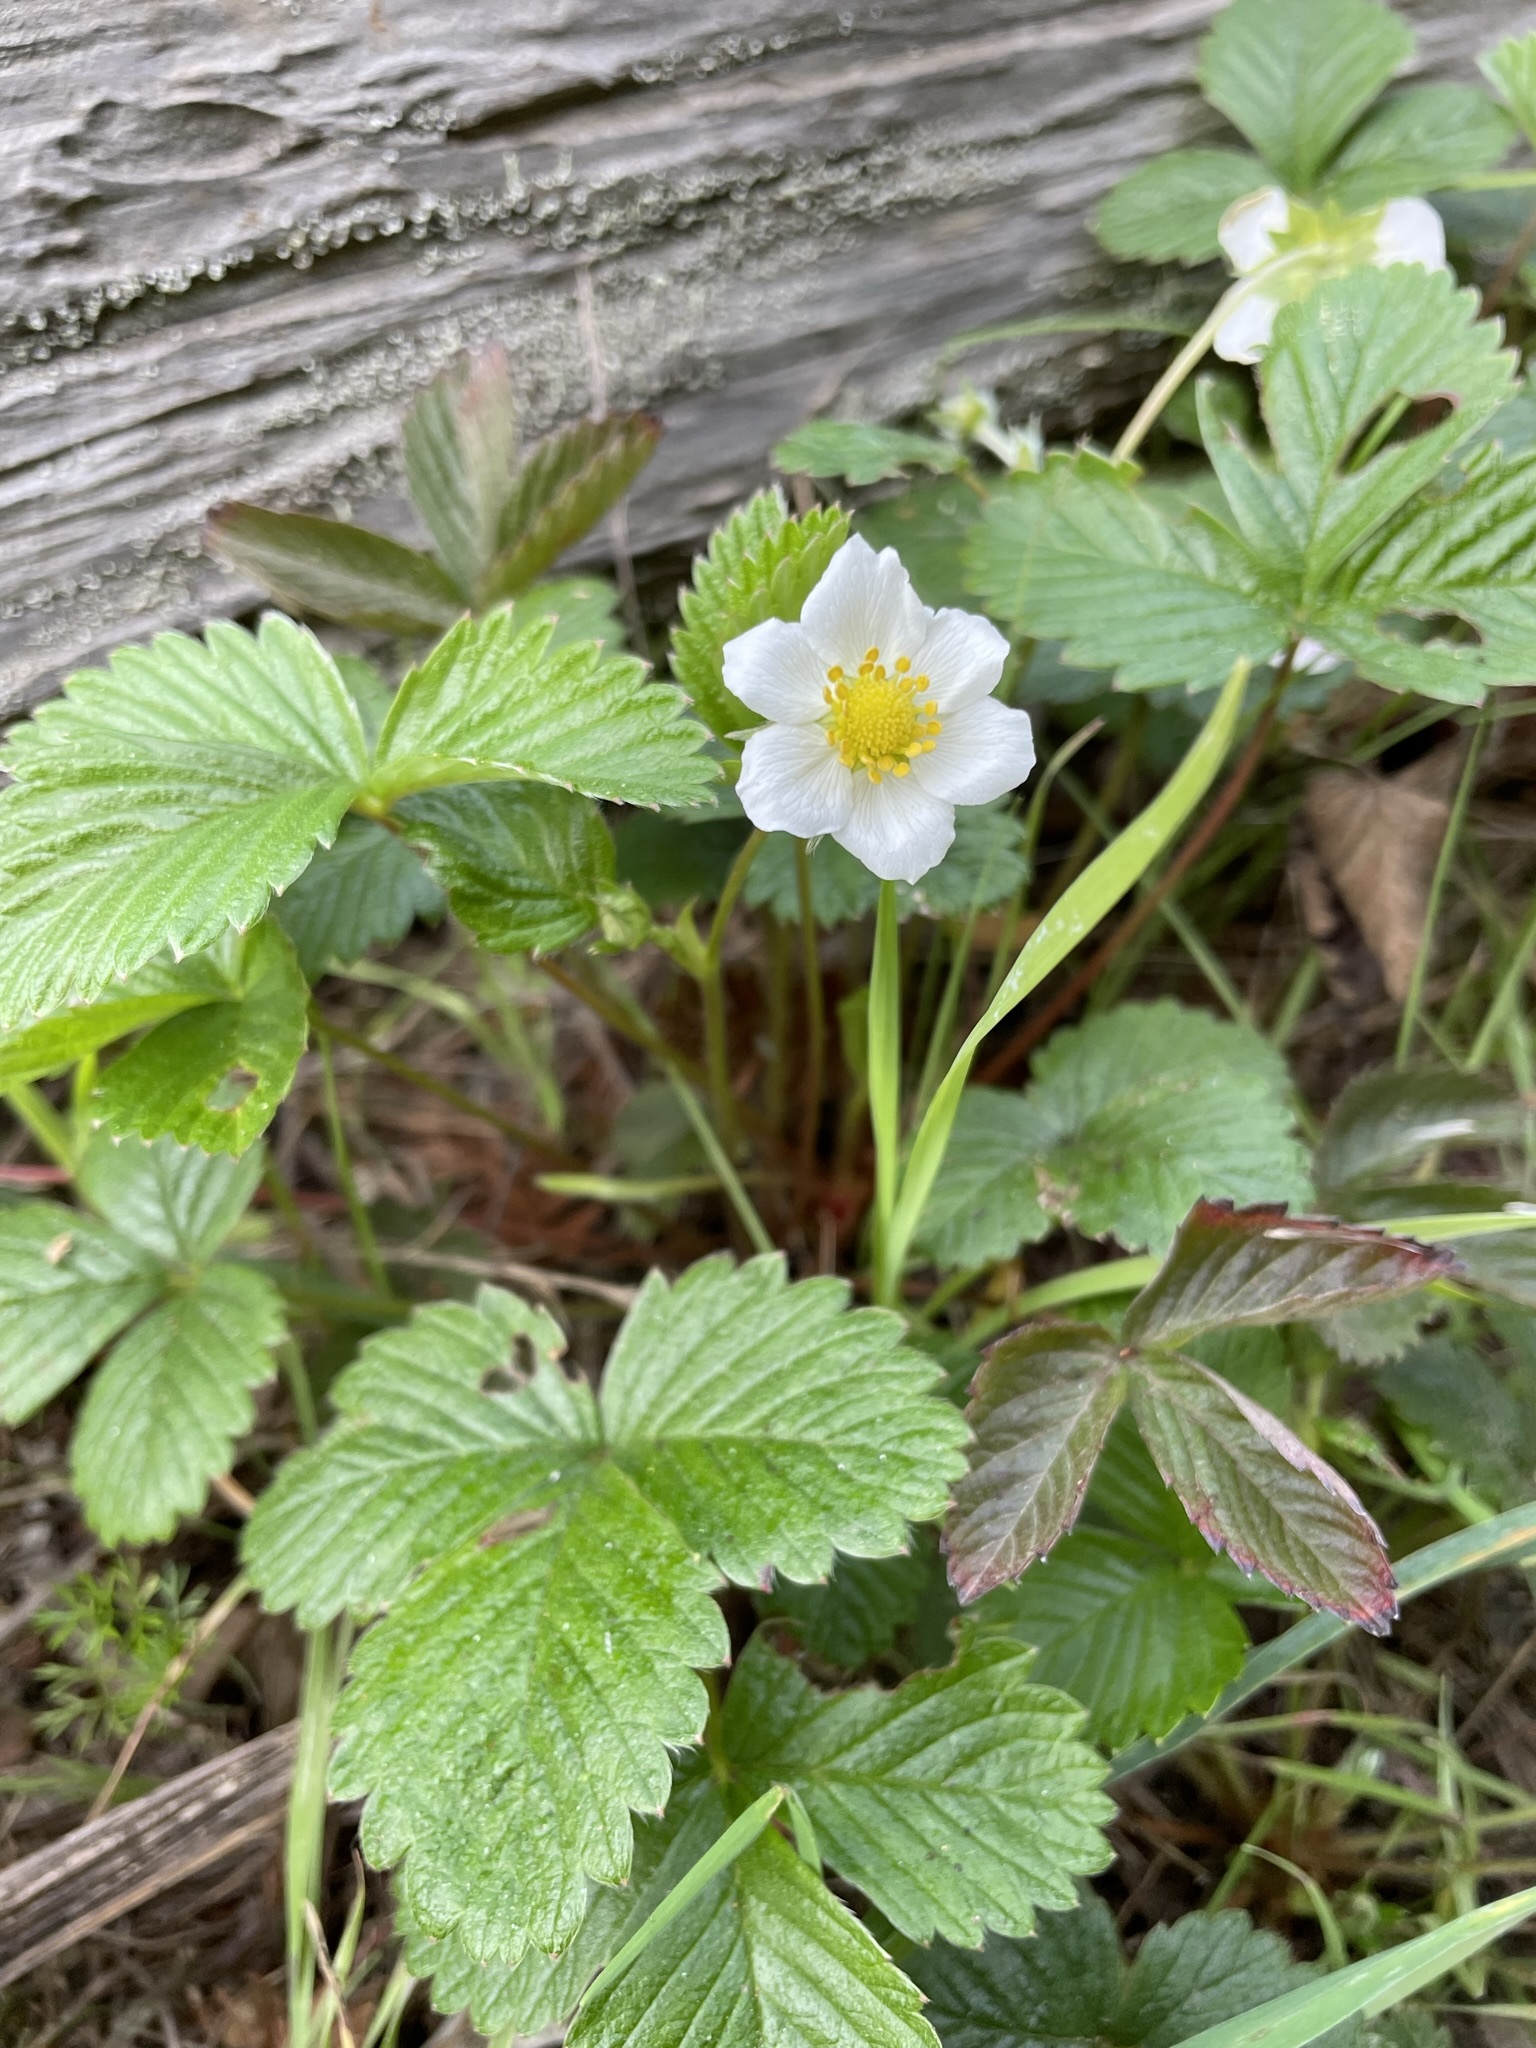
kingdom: Plantae
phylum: Tracheophyta
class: Magnoliopsida
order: Rosales
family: Rosaceae
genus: Fragaria
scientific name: Fragaria vesca
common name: Wild strawberry
